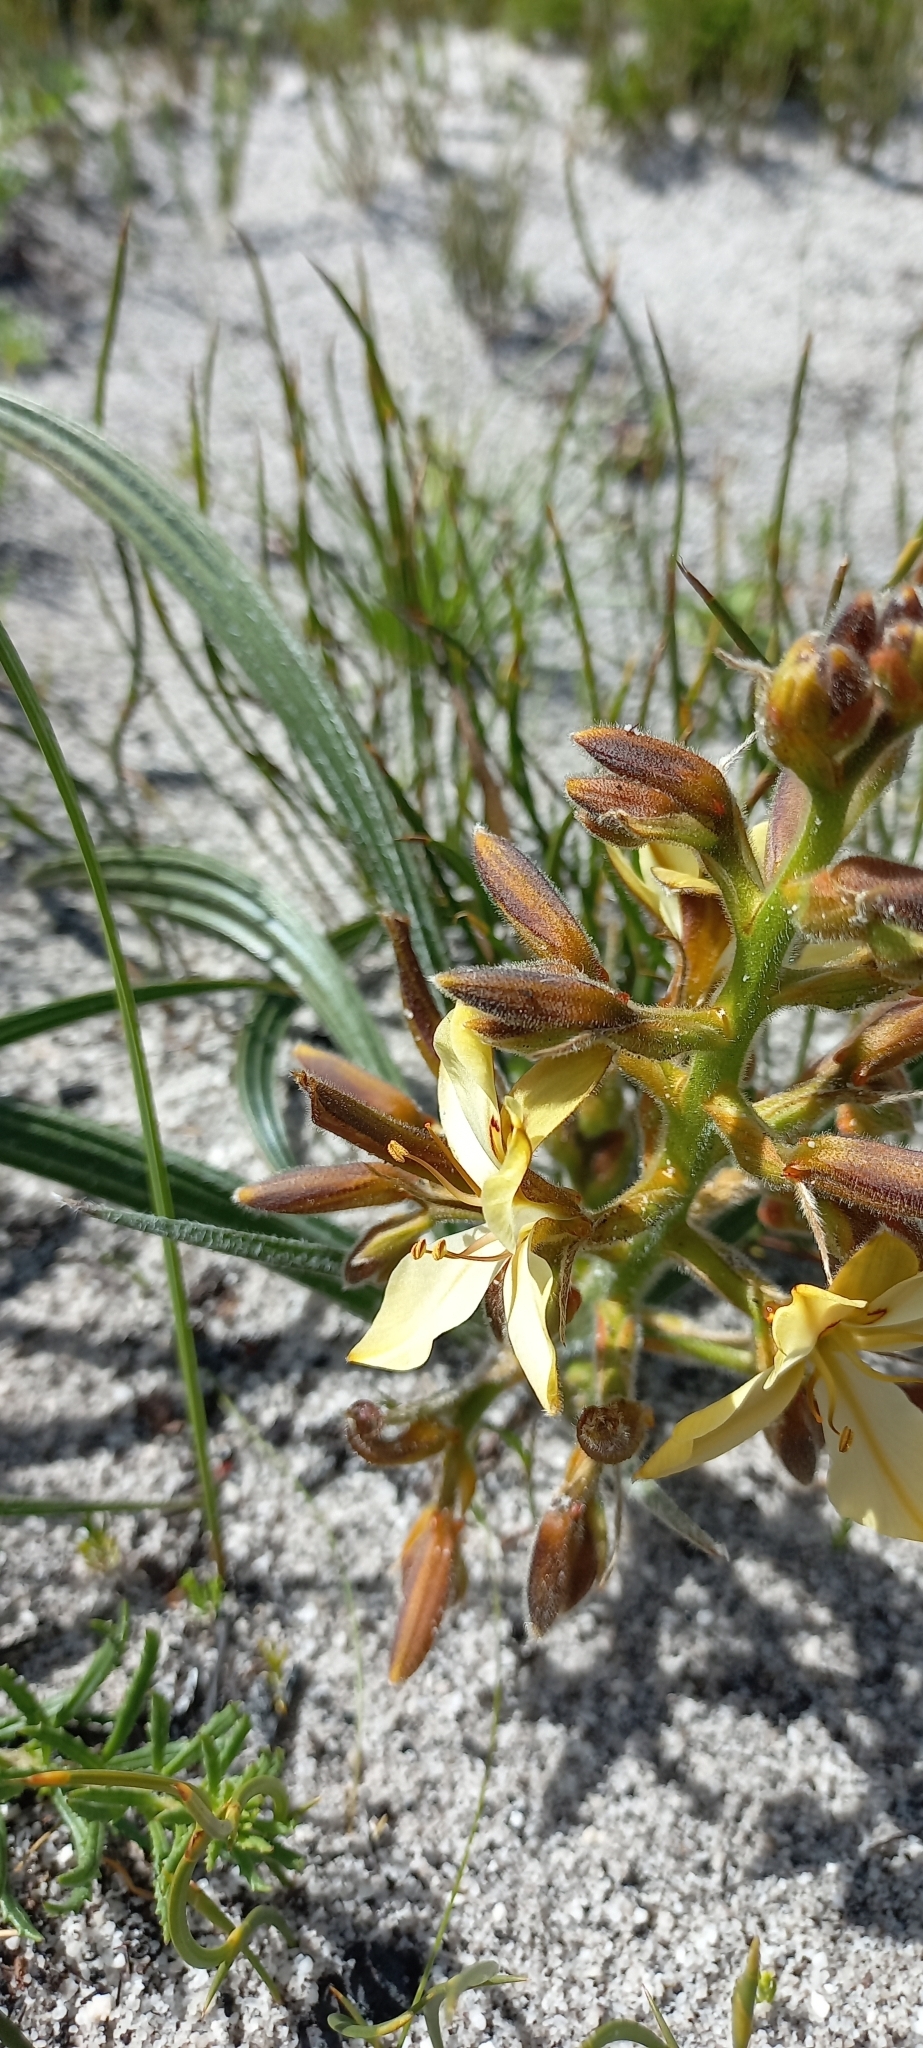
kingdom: Plantae
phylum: Tracheophyta
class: Liliopsida
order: Commelinales
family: Haemodoraceae
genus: Wachendorfia
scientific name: Wachendorfia paniculata
